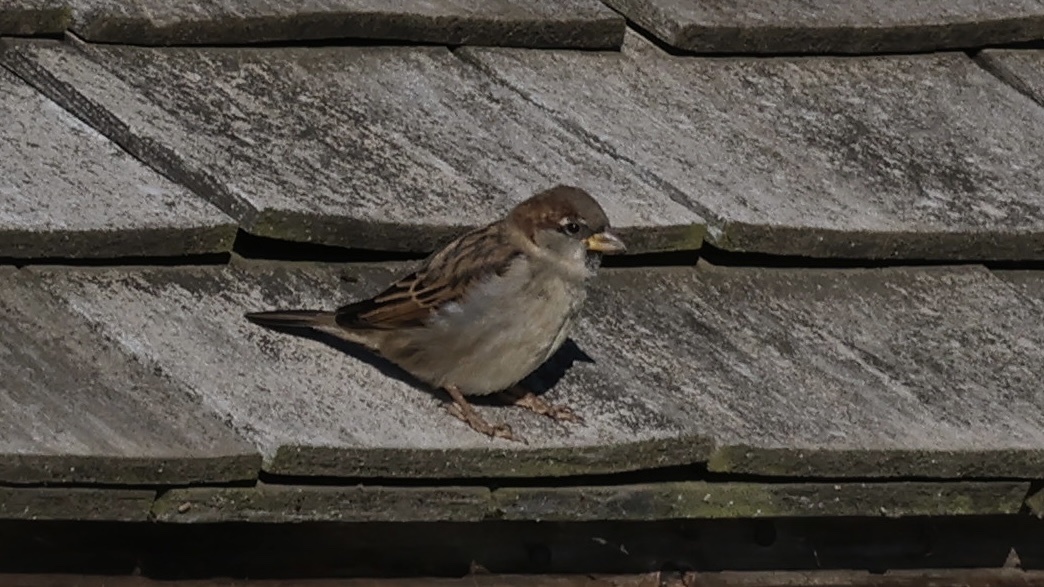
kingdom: Animalia
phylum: Chordata
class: Aves
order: Passeriformes
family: Passeridae
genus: Passer
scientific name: Passer domesticus
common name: House sparrow
